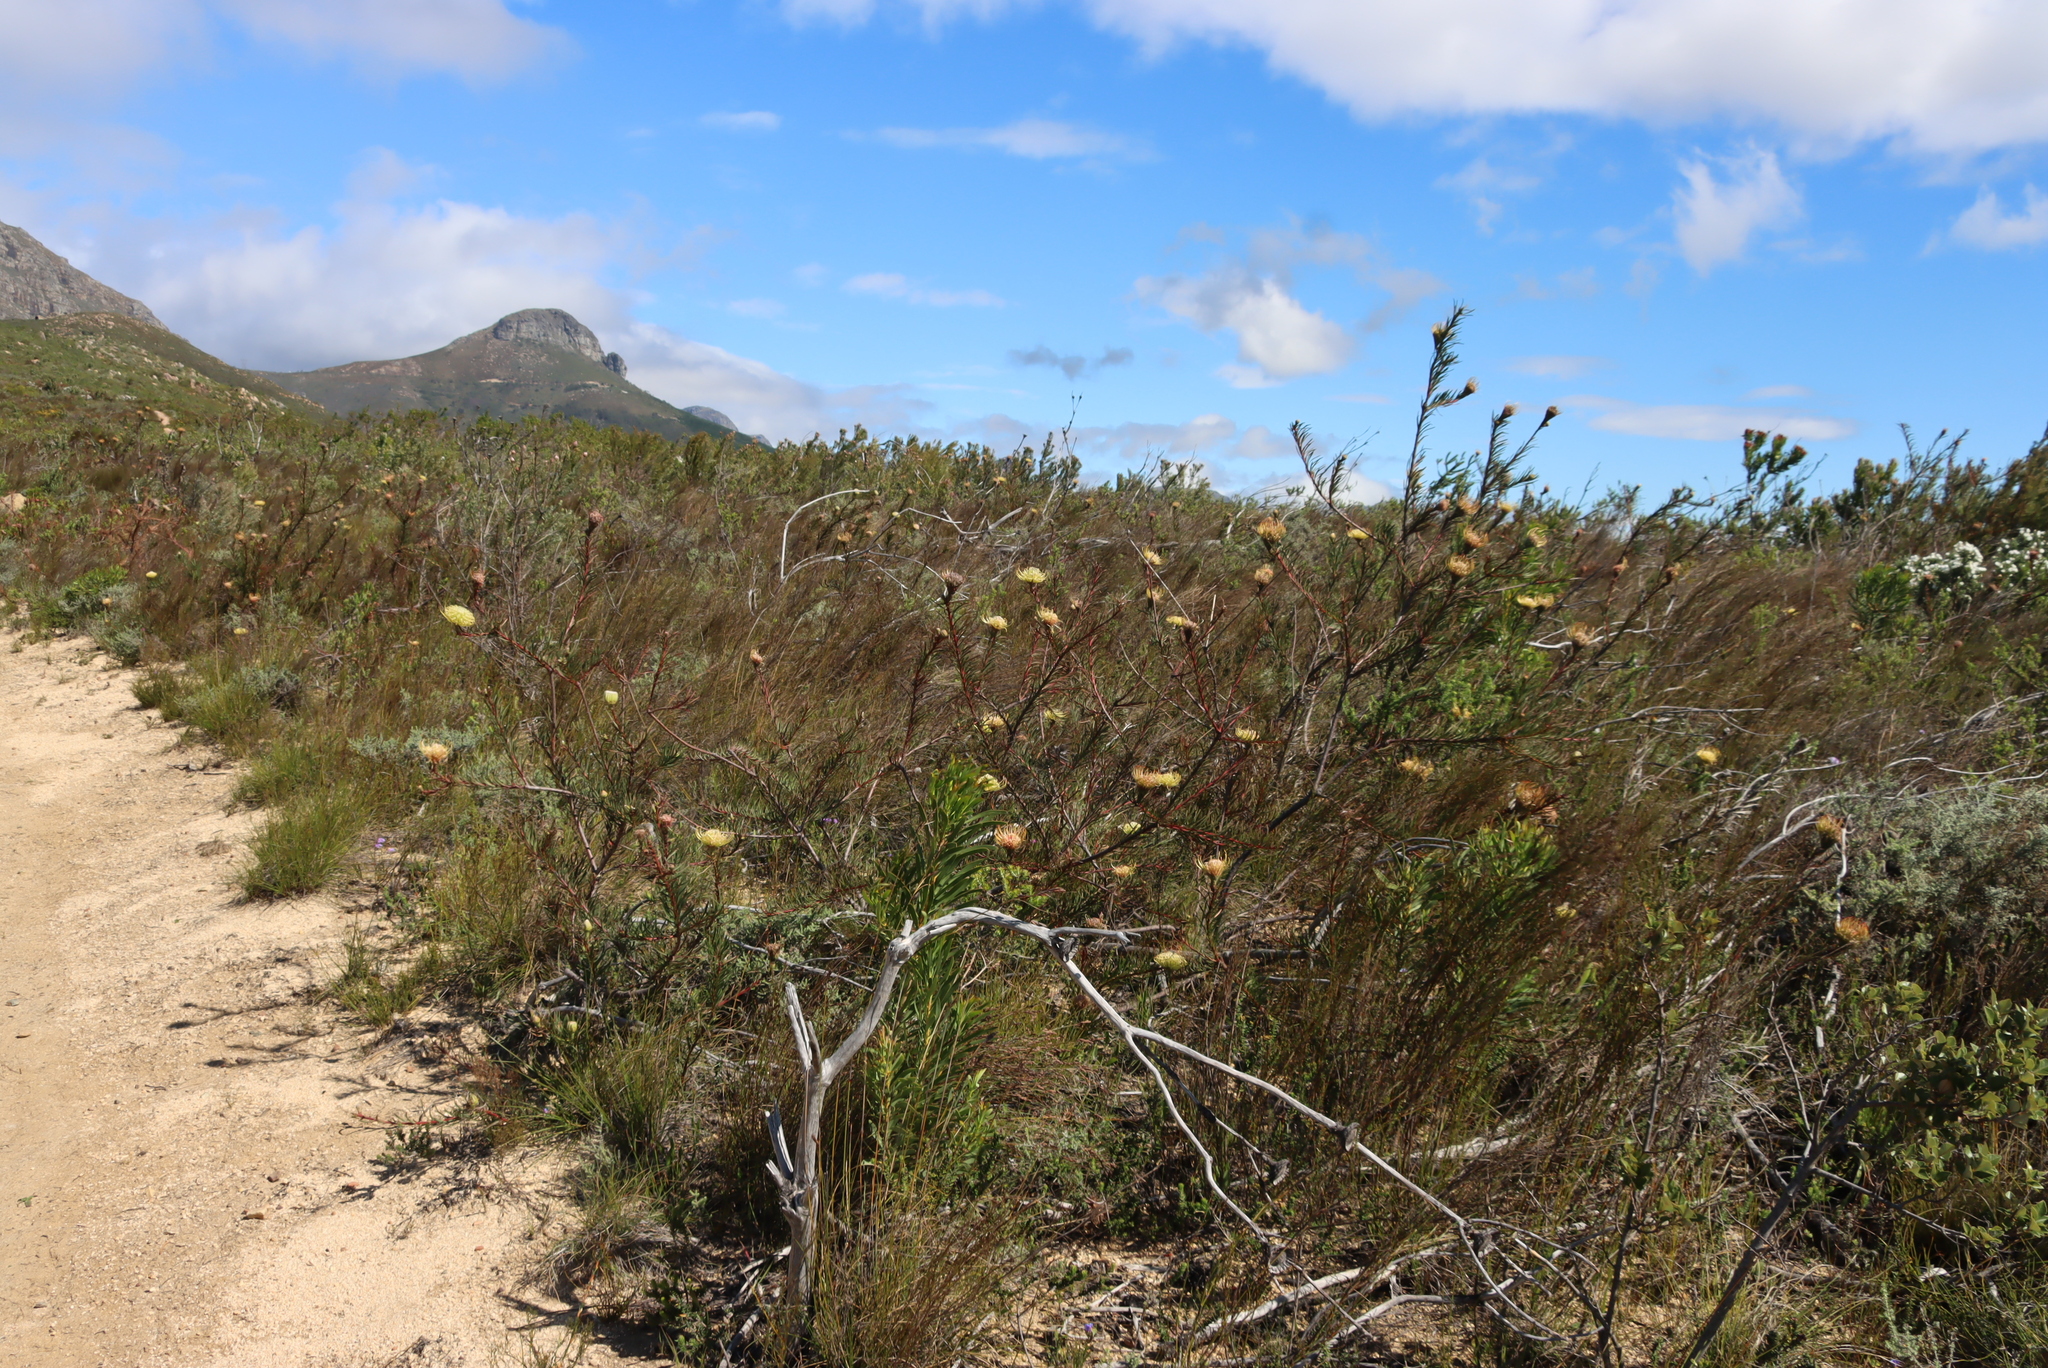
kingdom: Plantae
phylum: Tracheophyta
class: Magnoliopsida
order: Proteales
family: Proteaceae
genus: Leucospermum
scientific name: Leucospermum lineare
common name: Needle-leaf pincushion
